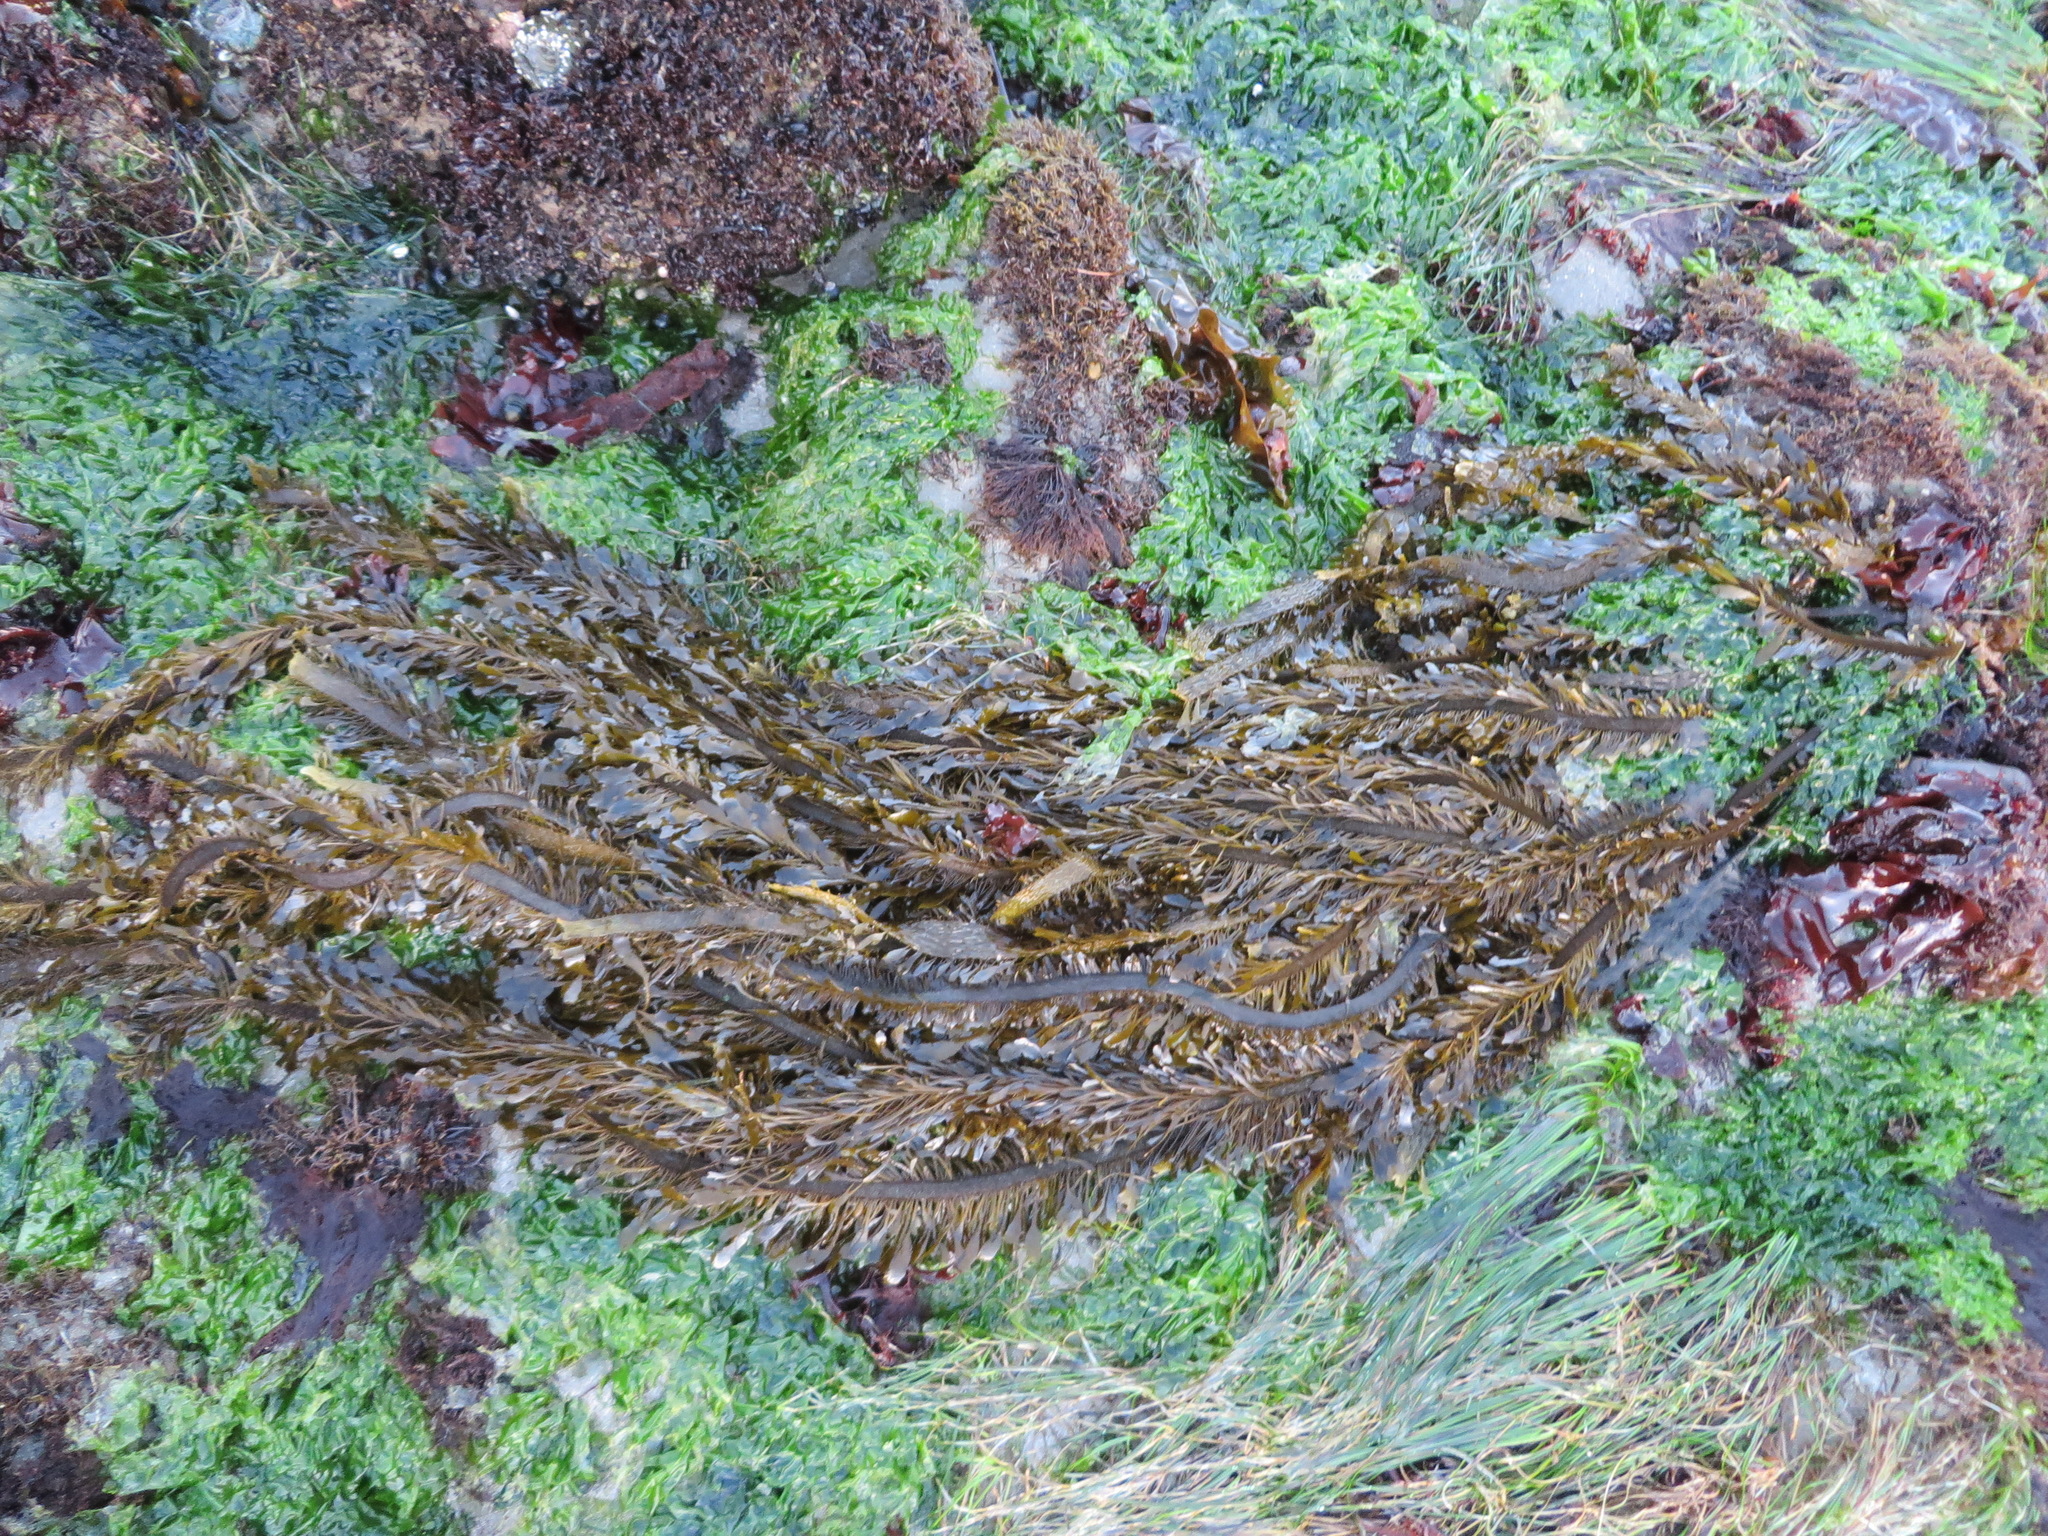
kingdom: Chromista
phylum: Ochrophyta
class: Phaeophyceae
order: Laminariales
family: Lessoniaceae
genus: Egregia
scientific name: Egregia menziesii
